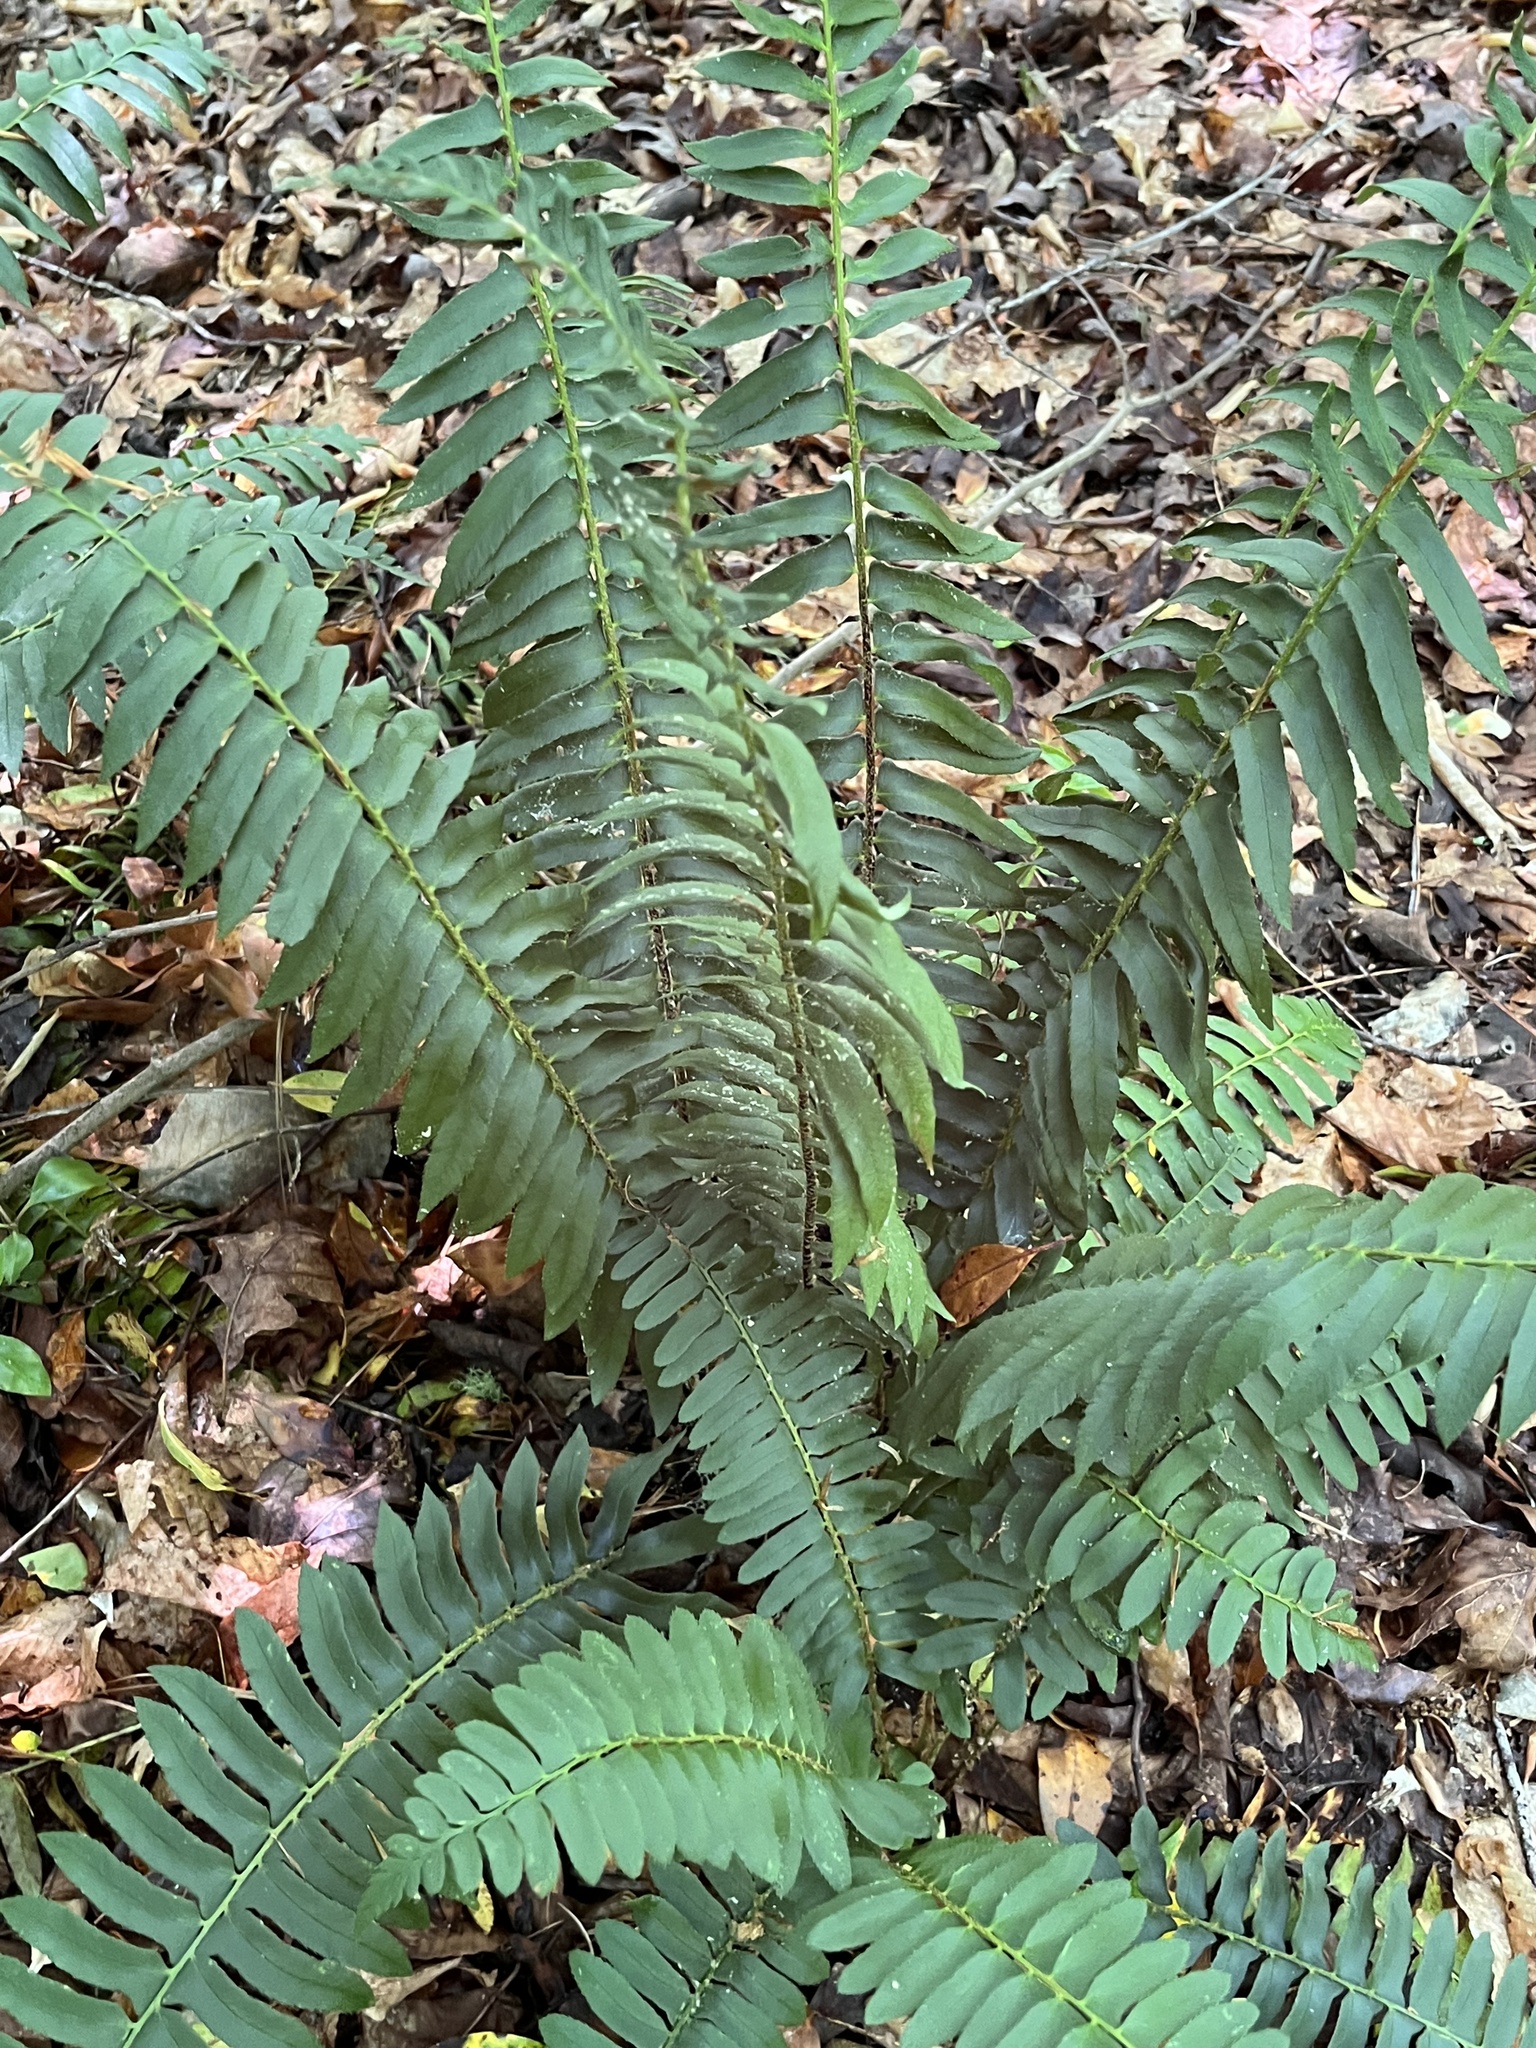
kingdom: Plantae
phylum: Tracheophyta
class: Polypodiopsida
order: Polypodiales
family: Dryopteridaceae
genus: Polystichum
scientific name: Polystichum acrostichoides
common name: Christmas fern
